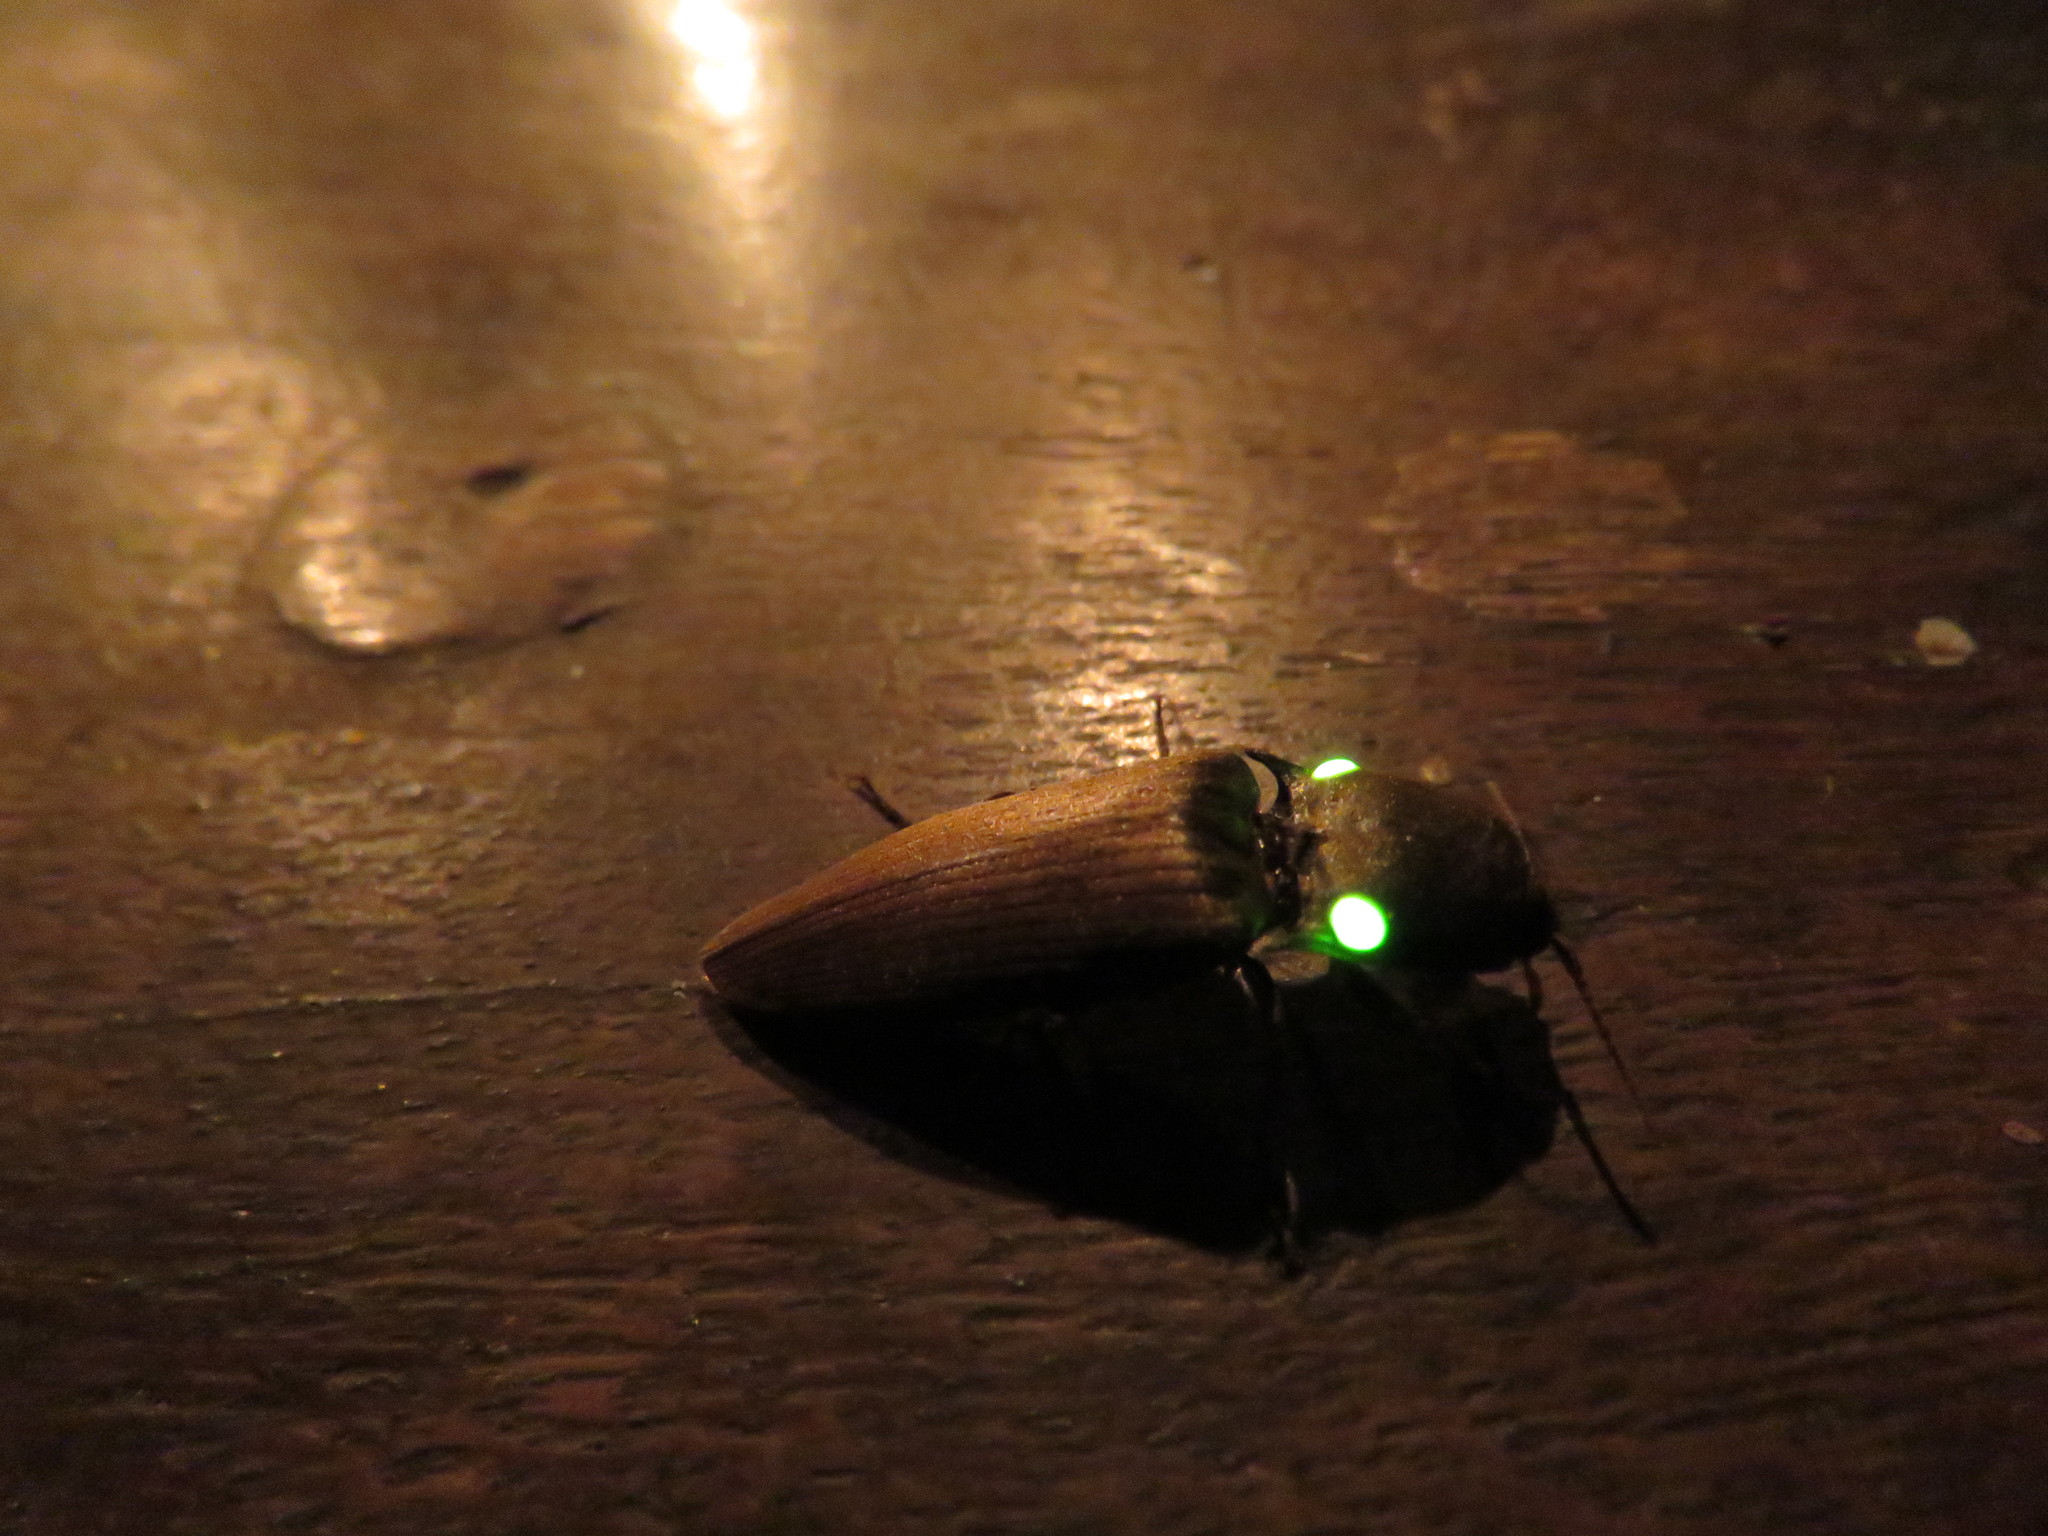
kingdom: Animalia
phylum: Arthropoda
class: Insecta
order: Coleoptera
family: Elateridae
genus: Pyrophorus
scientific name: Pyrophorus
